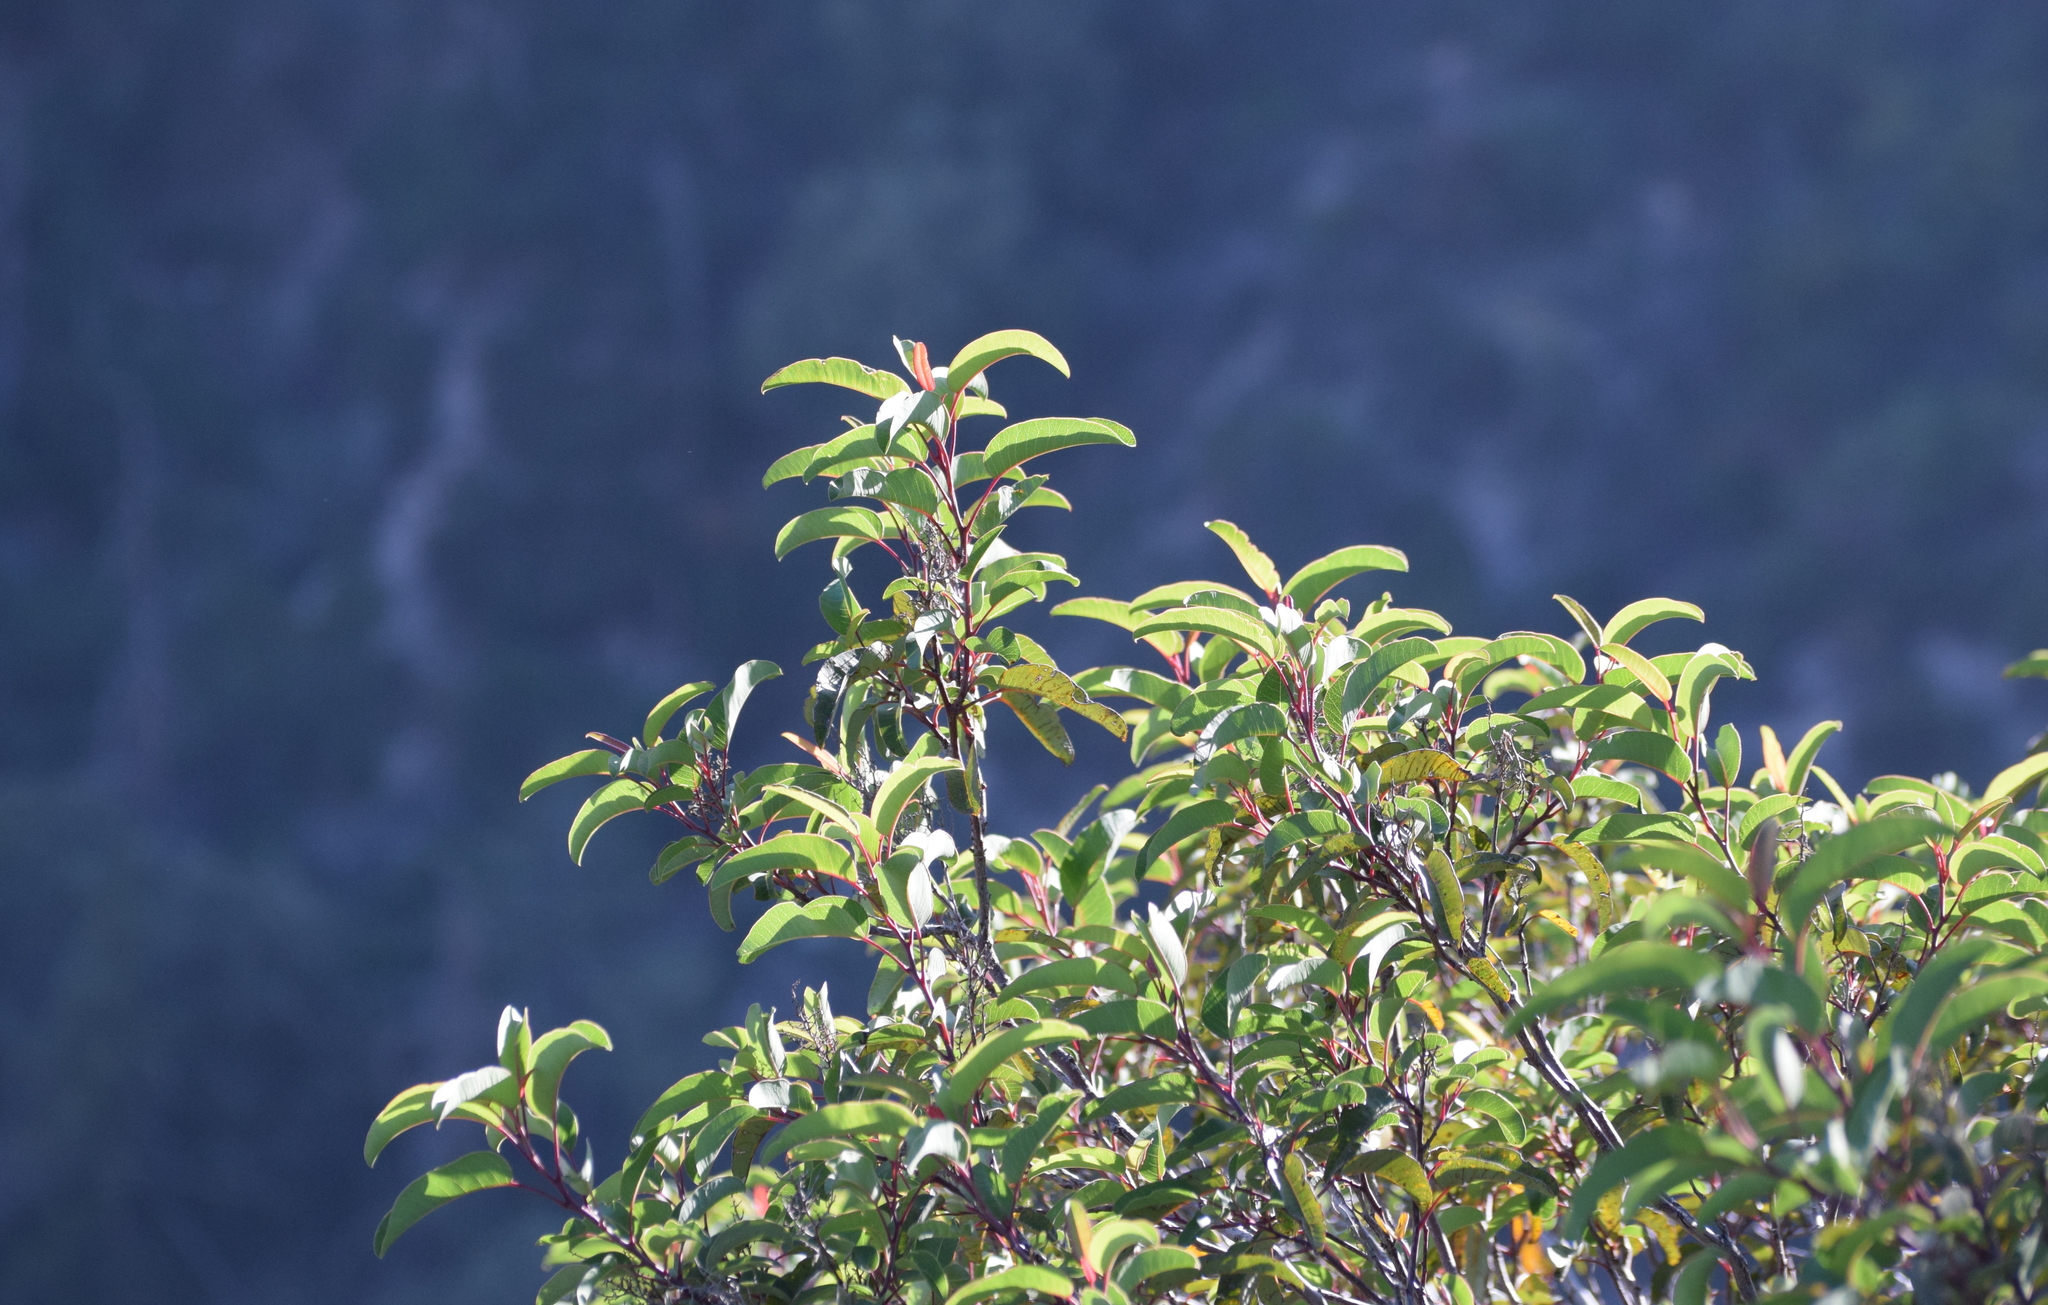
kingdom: Plantae
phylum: Tracheophyta
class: Magnoliopsida
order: Sapindales
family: Anacardiaceae
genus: Malosma
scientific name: Malosma laurina
